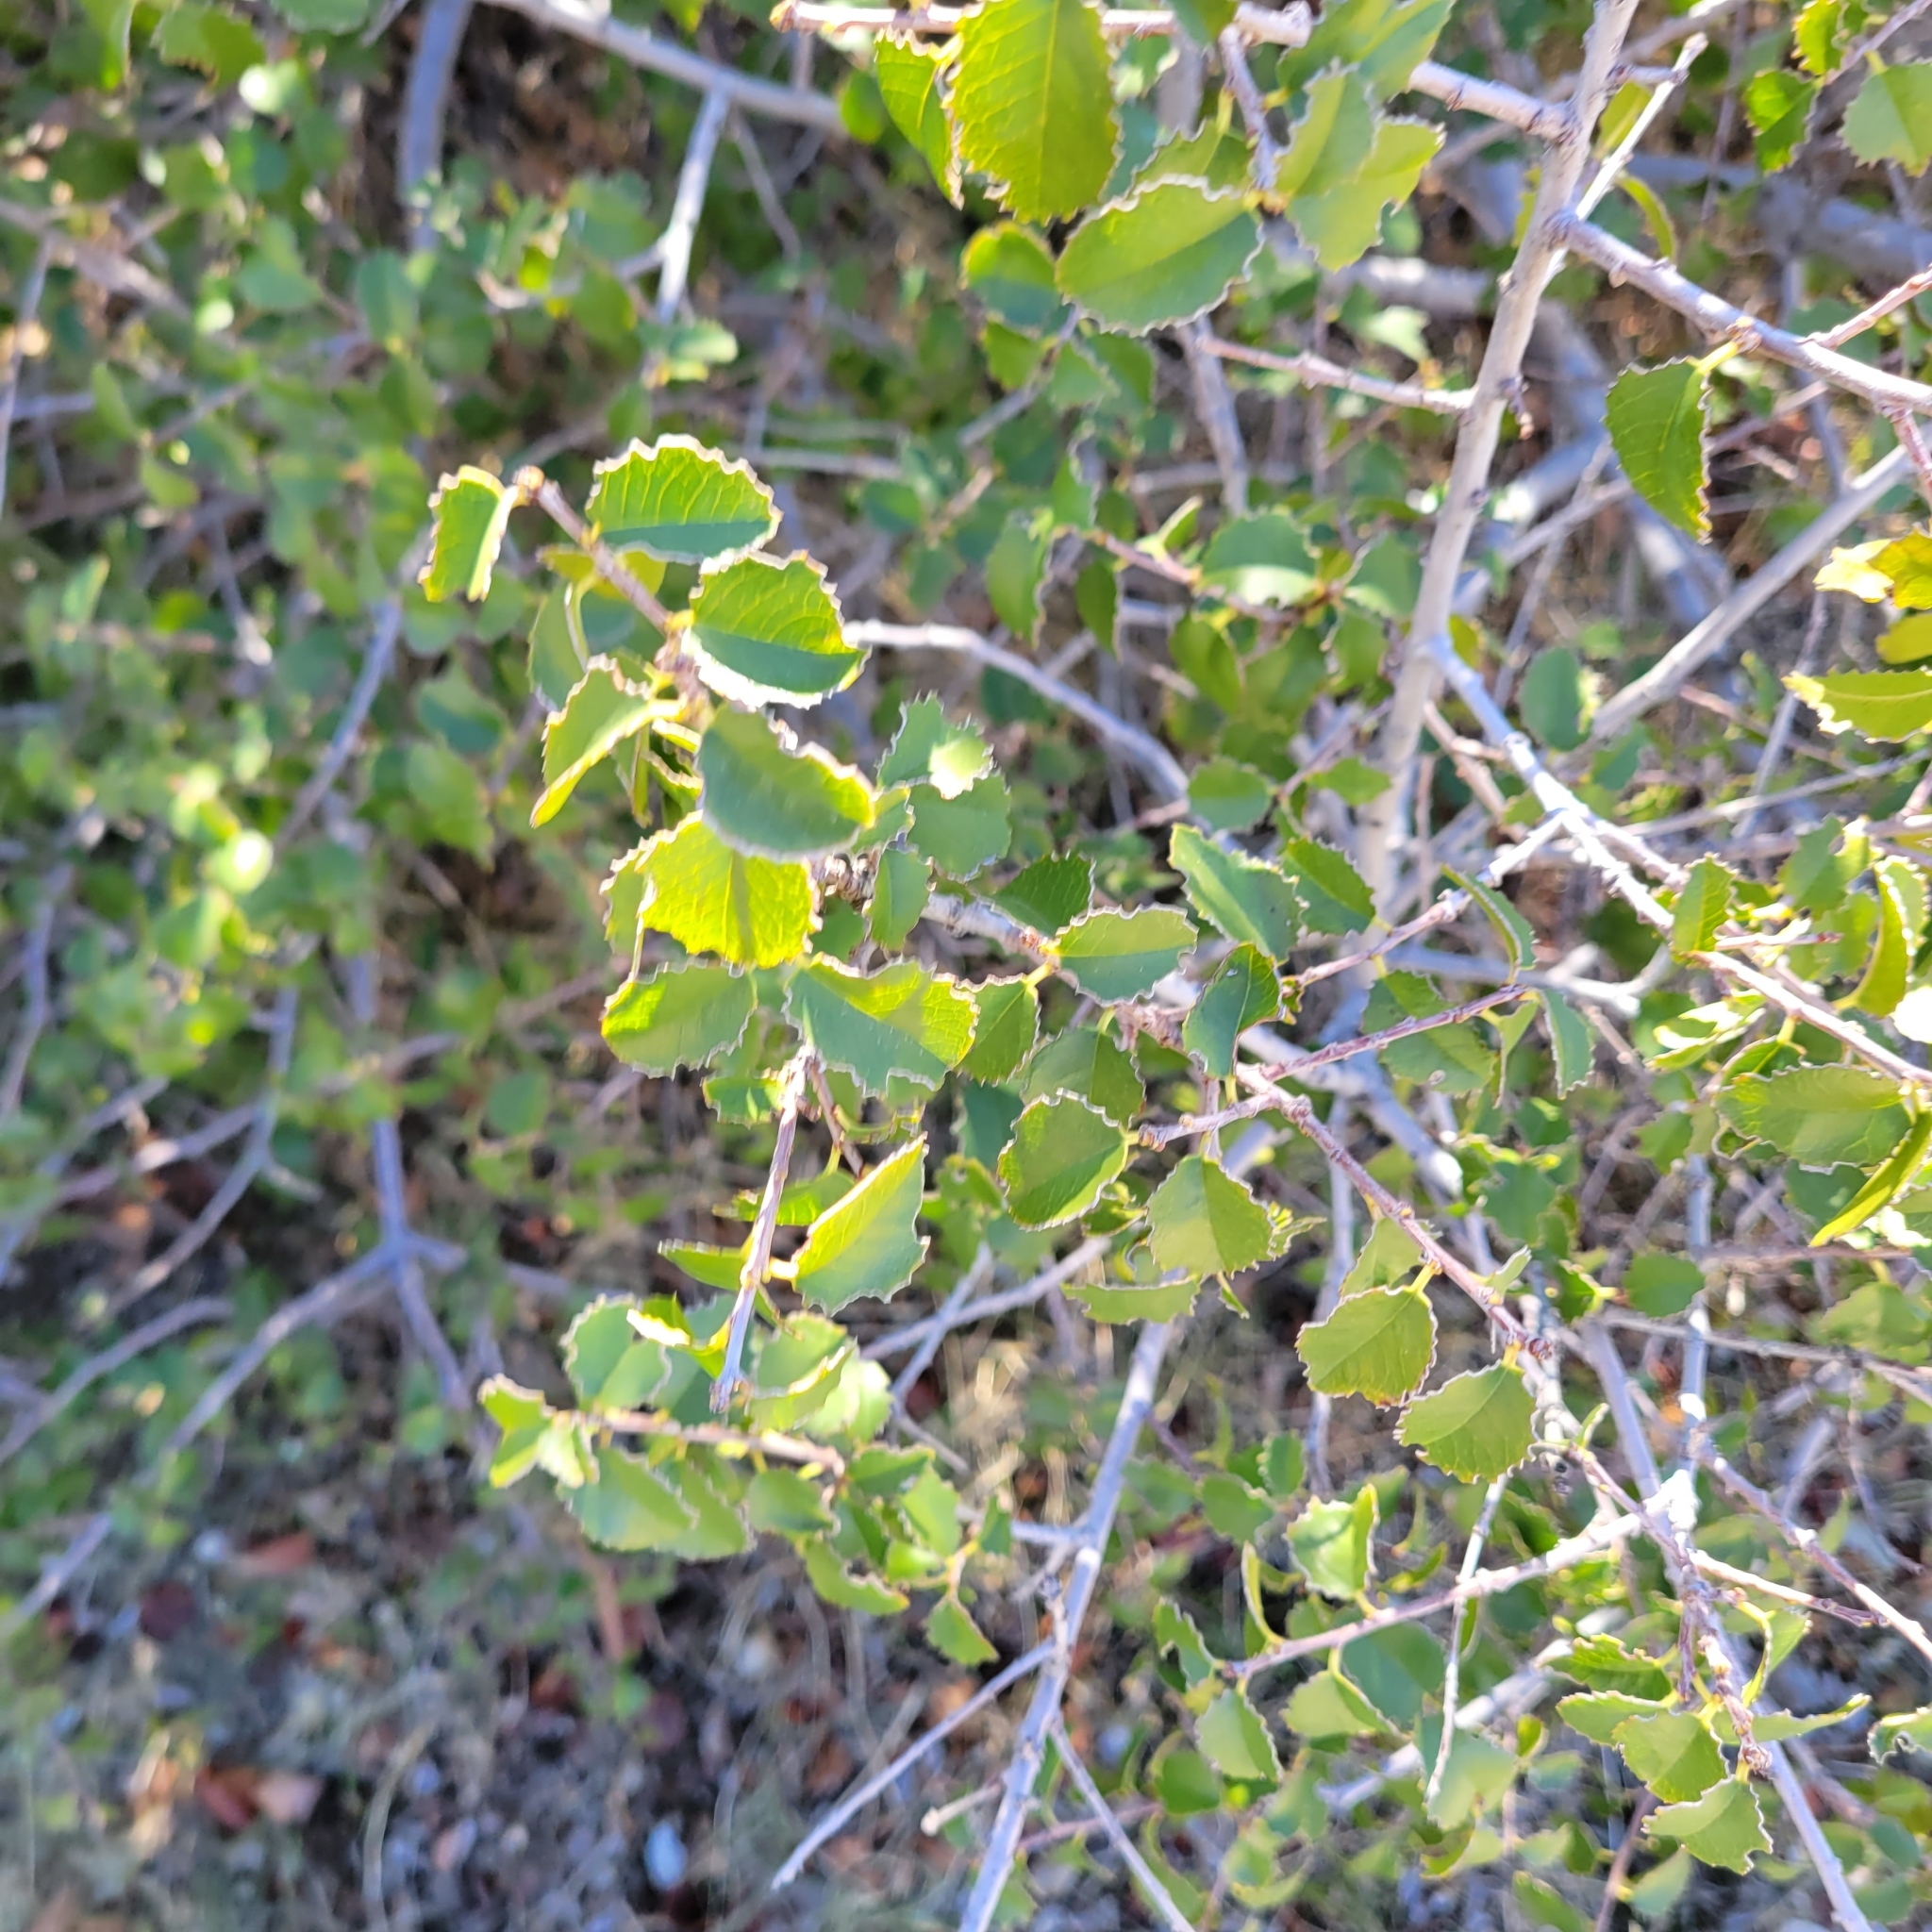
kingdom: Plantae
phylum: Tracheophyta
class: Magnoliopsida
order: Rosales
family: Rosaceae
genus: Prunus
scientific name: Prunus ilicifolia
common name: Hollyleaf cherry
